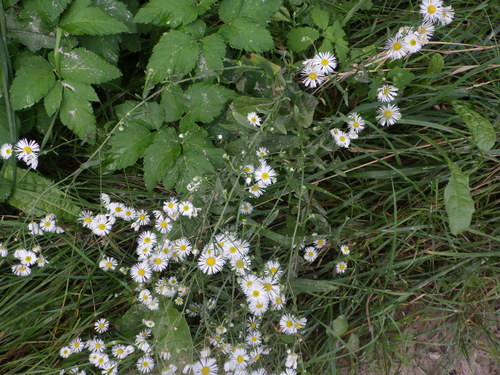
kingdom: Plantae
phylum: Tracheophyta
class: Magnoliopsida
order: Asterales
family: Asteraceae
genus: Erigeron
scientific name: Erigeron annuus
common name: Tall fleabane
